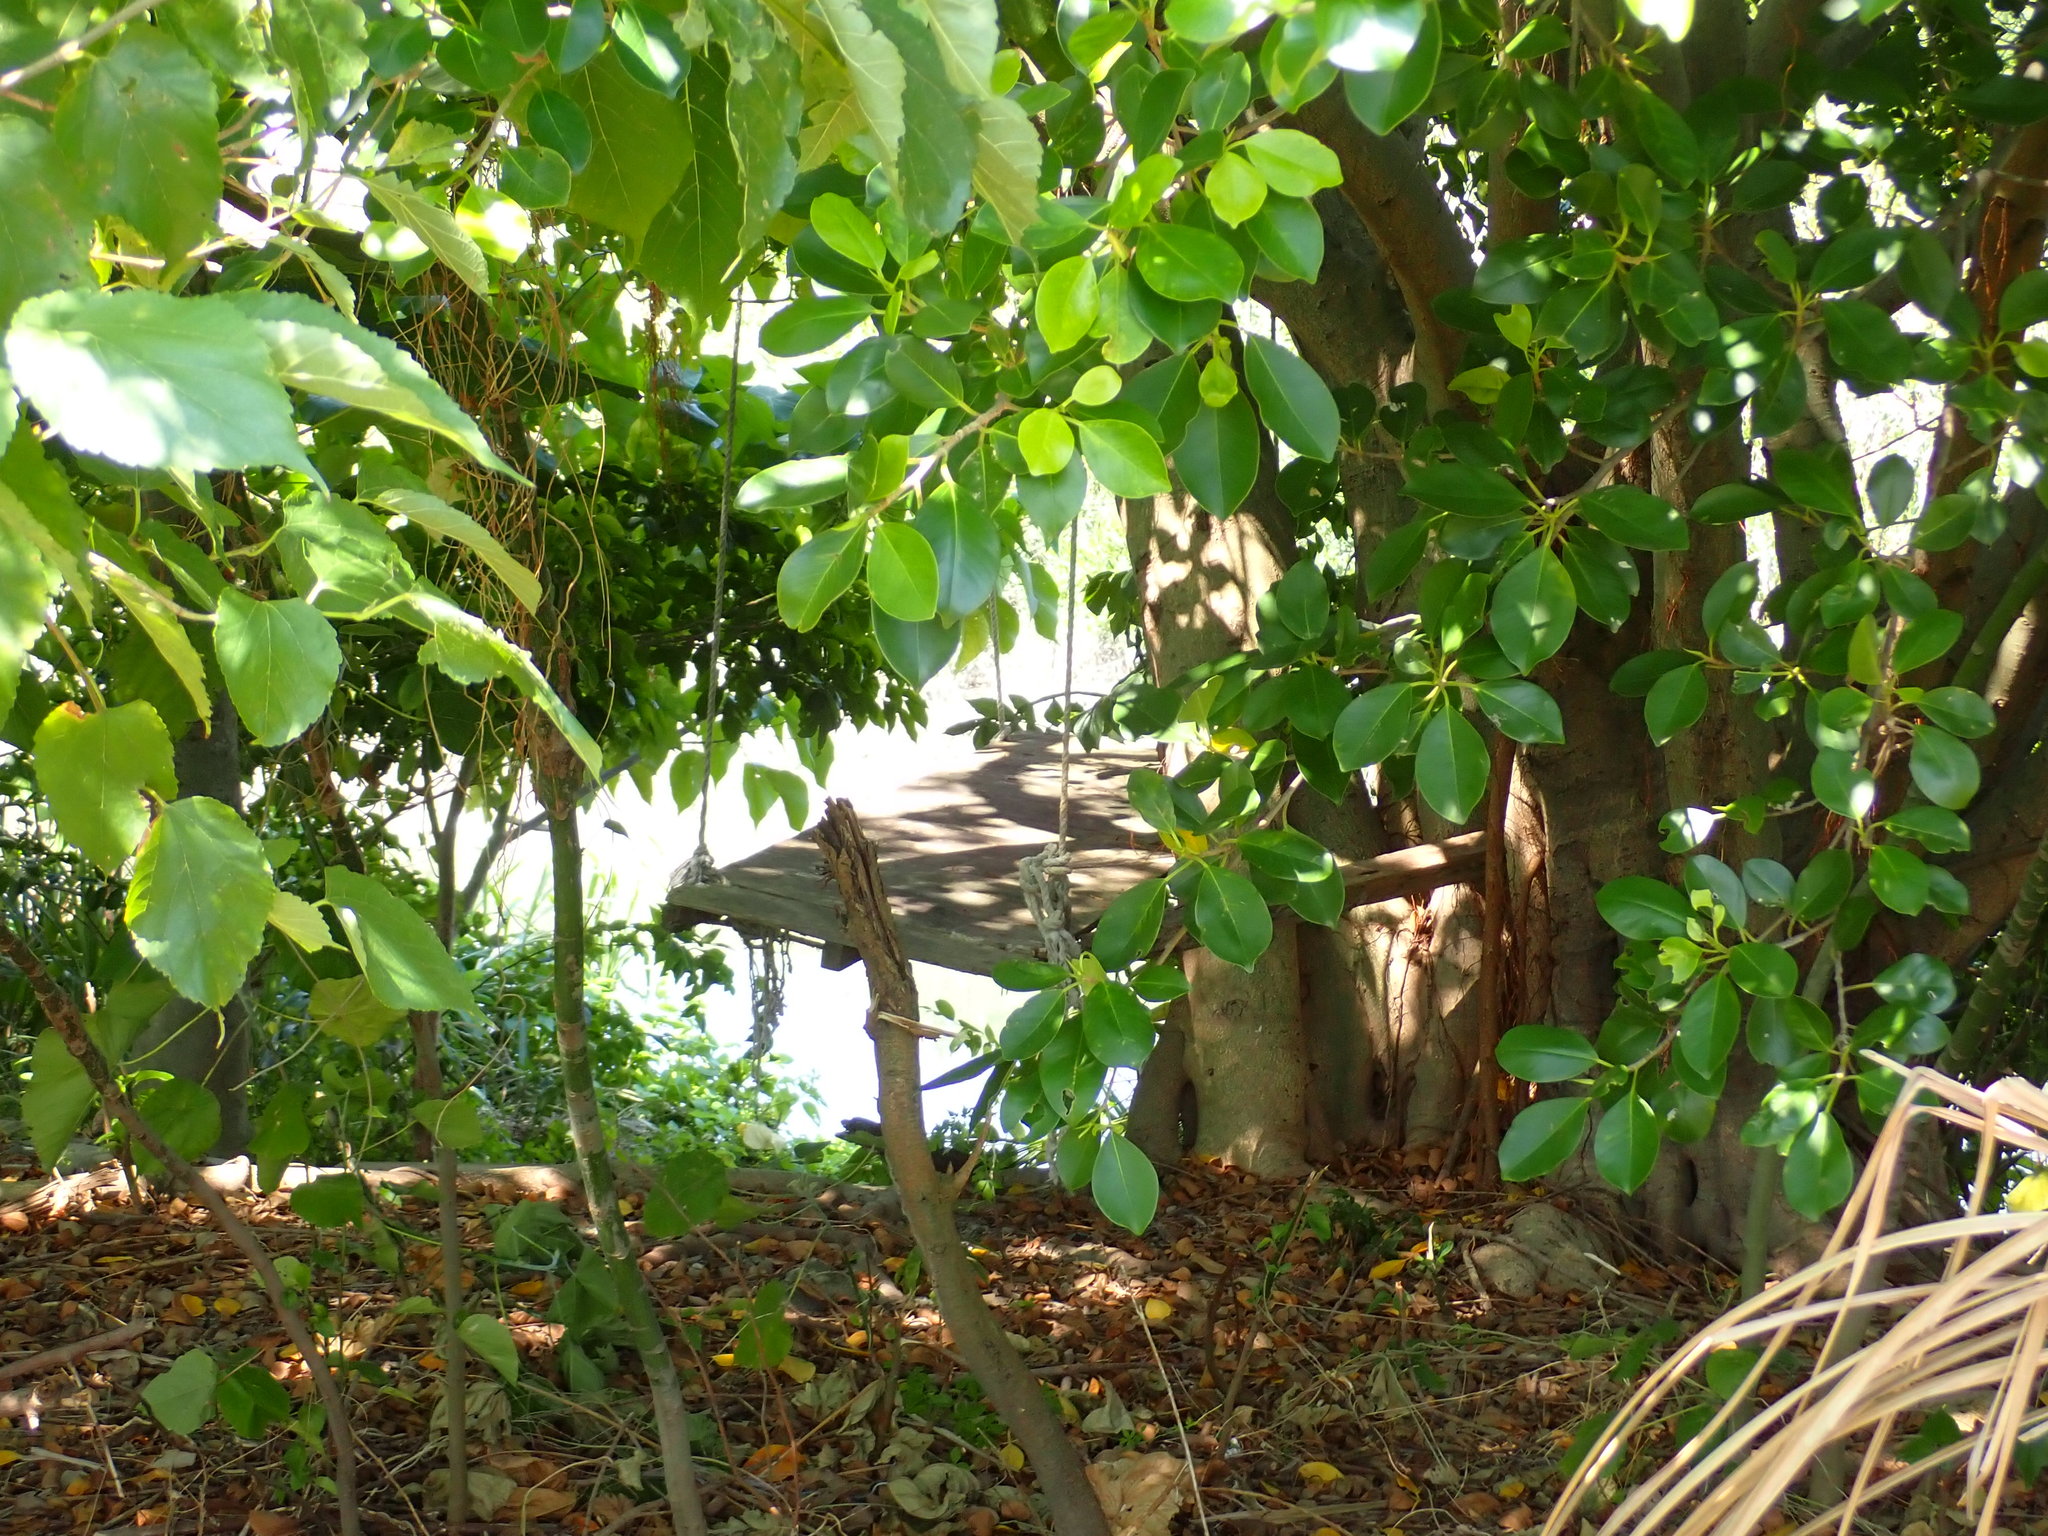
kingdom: Plantae
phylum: Tracheophyta
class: Magnoliopsida
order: Rosales
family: Moraceae
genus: Ficus
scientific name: Ficus microcarpa
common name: Chinese banyan
